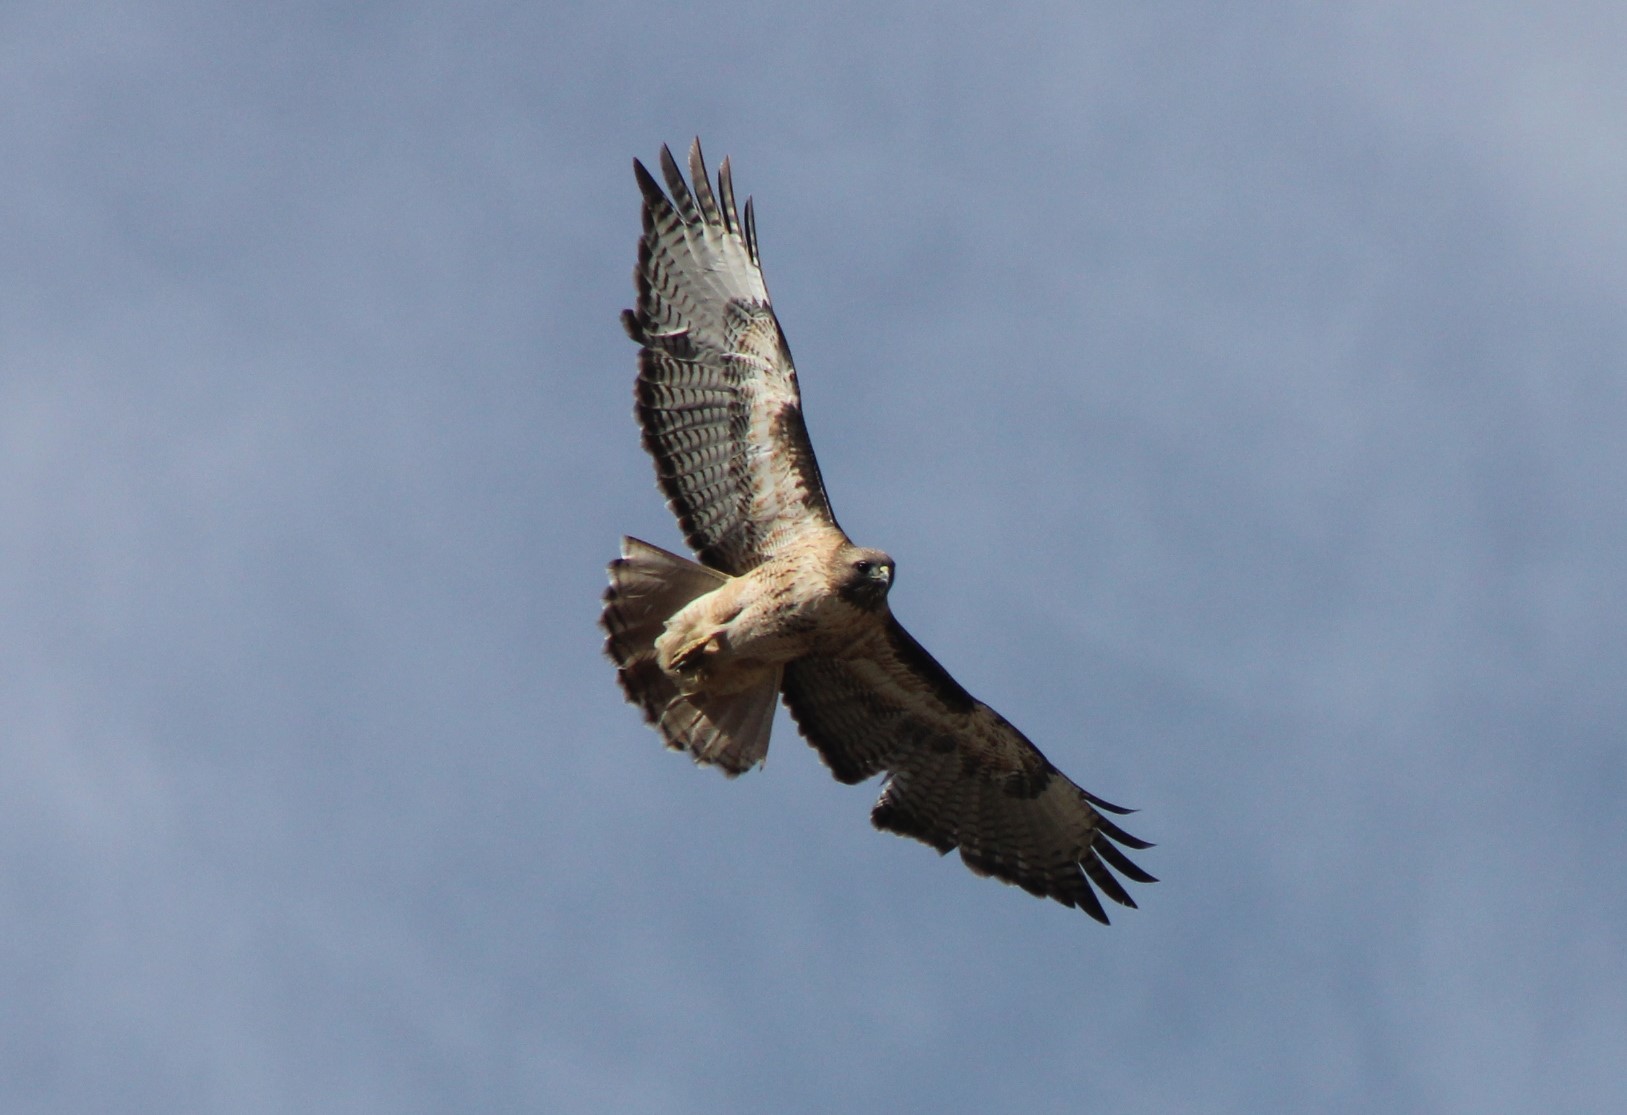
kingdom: Animalia
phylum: Chordata
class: Aves
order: Accipitriformes
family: Accipitridae
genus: Buteo
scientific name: Buteo jamaicensis
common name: Red-tailed hawk
